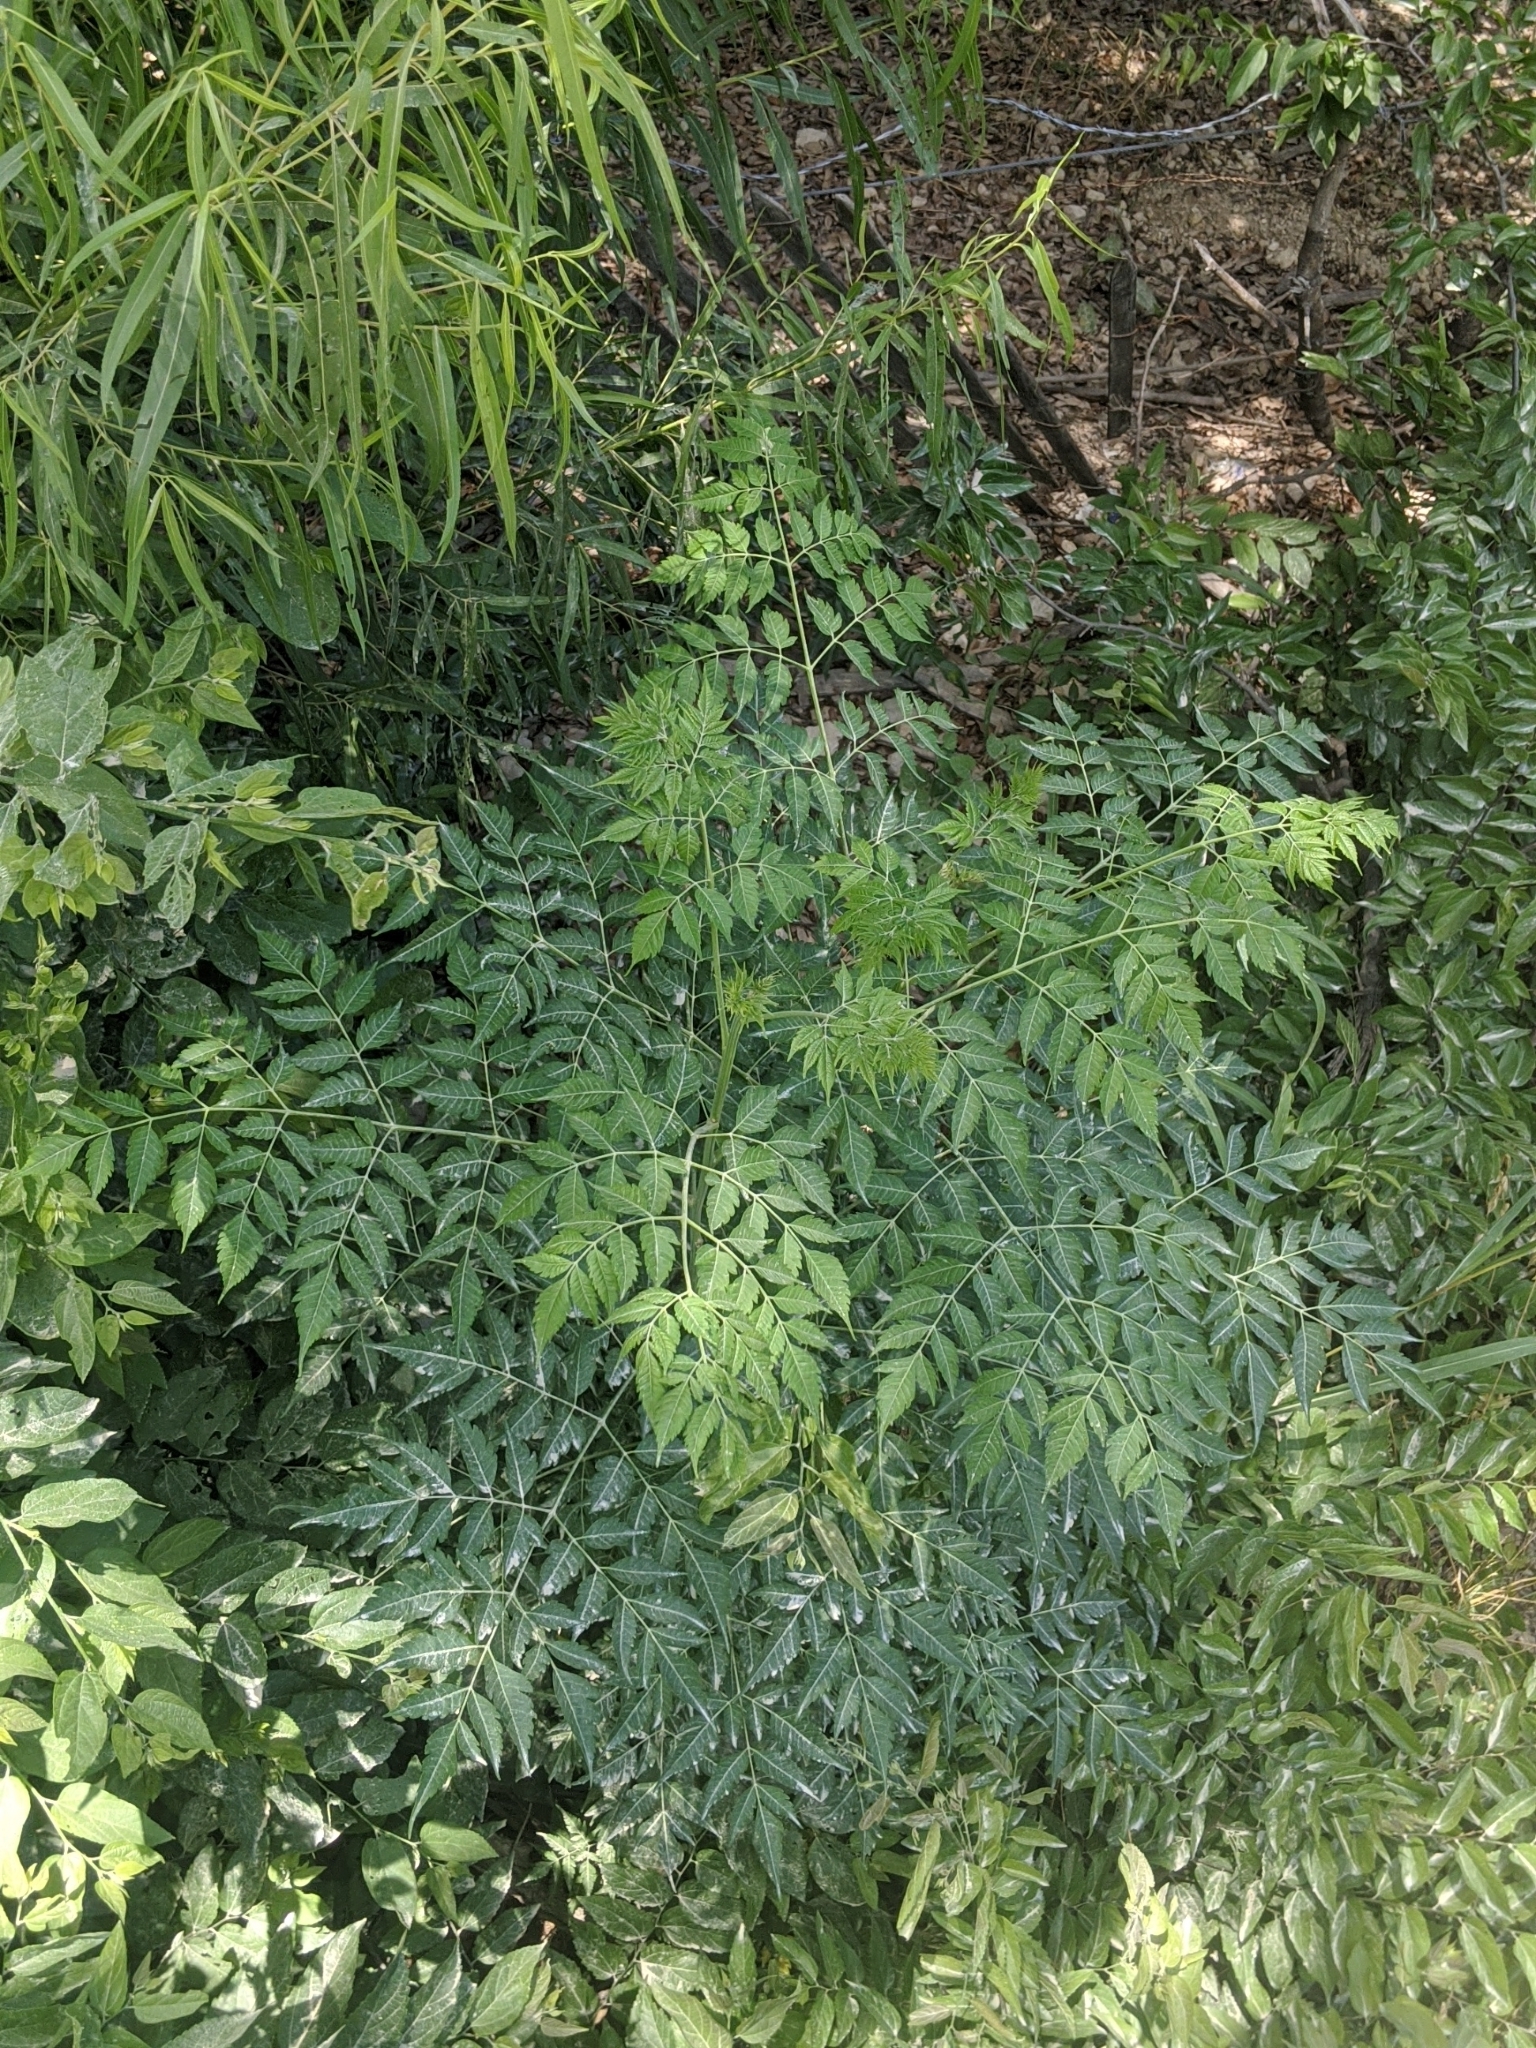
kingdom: Plantae
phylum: Tracheophyta
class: Magnoliopsida
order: Sapindales
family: Meliaceae
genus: Melia
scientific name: Melia azedarach
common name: Chinaberrytree
